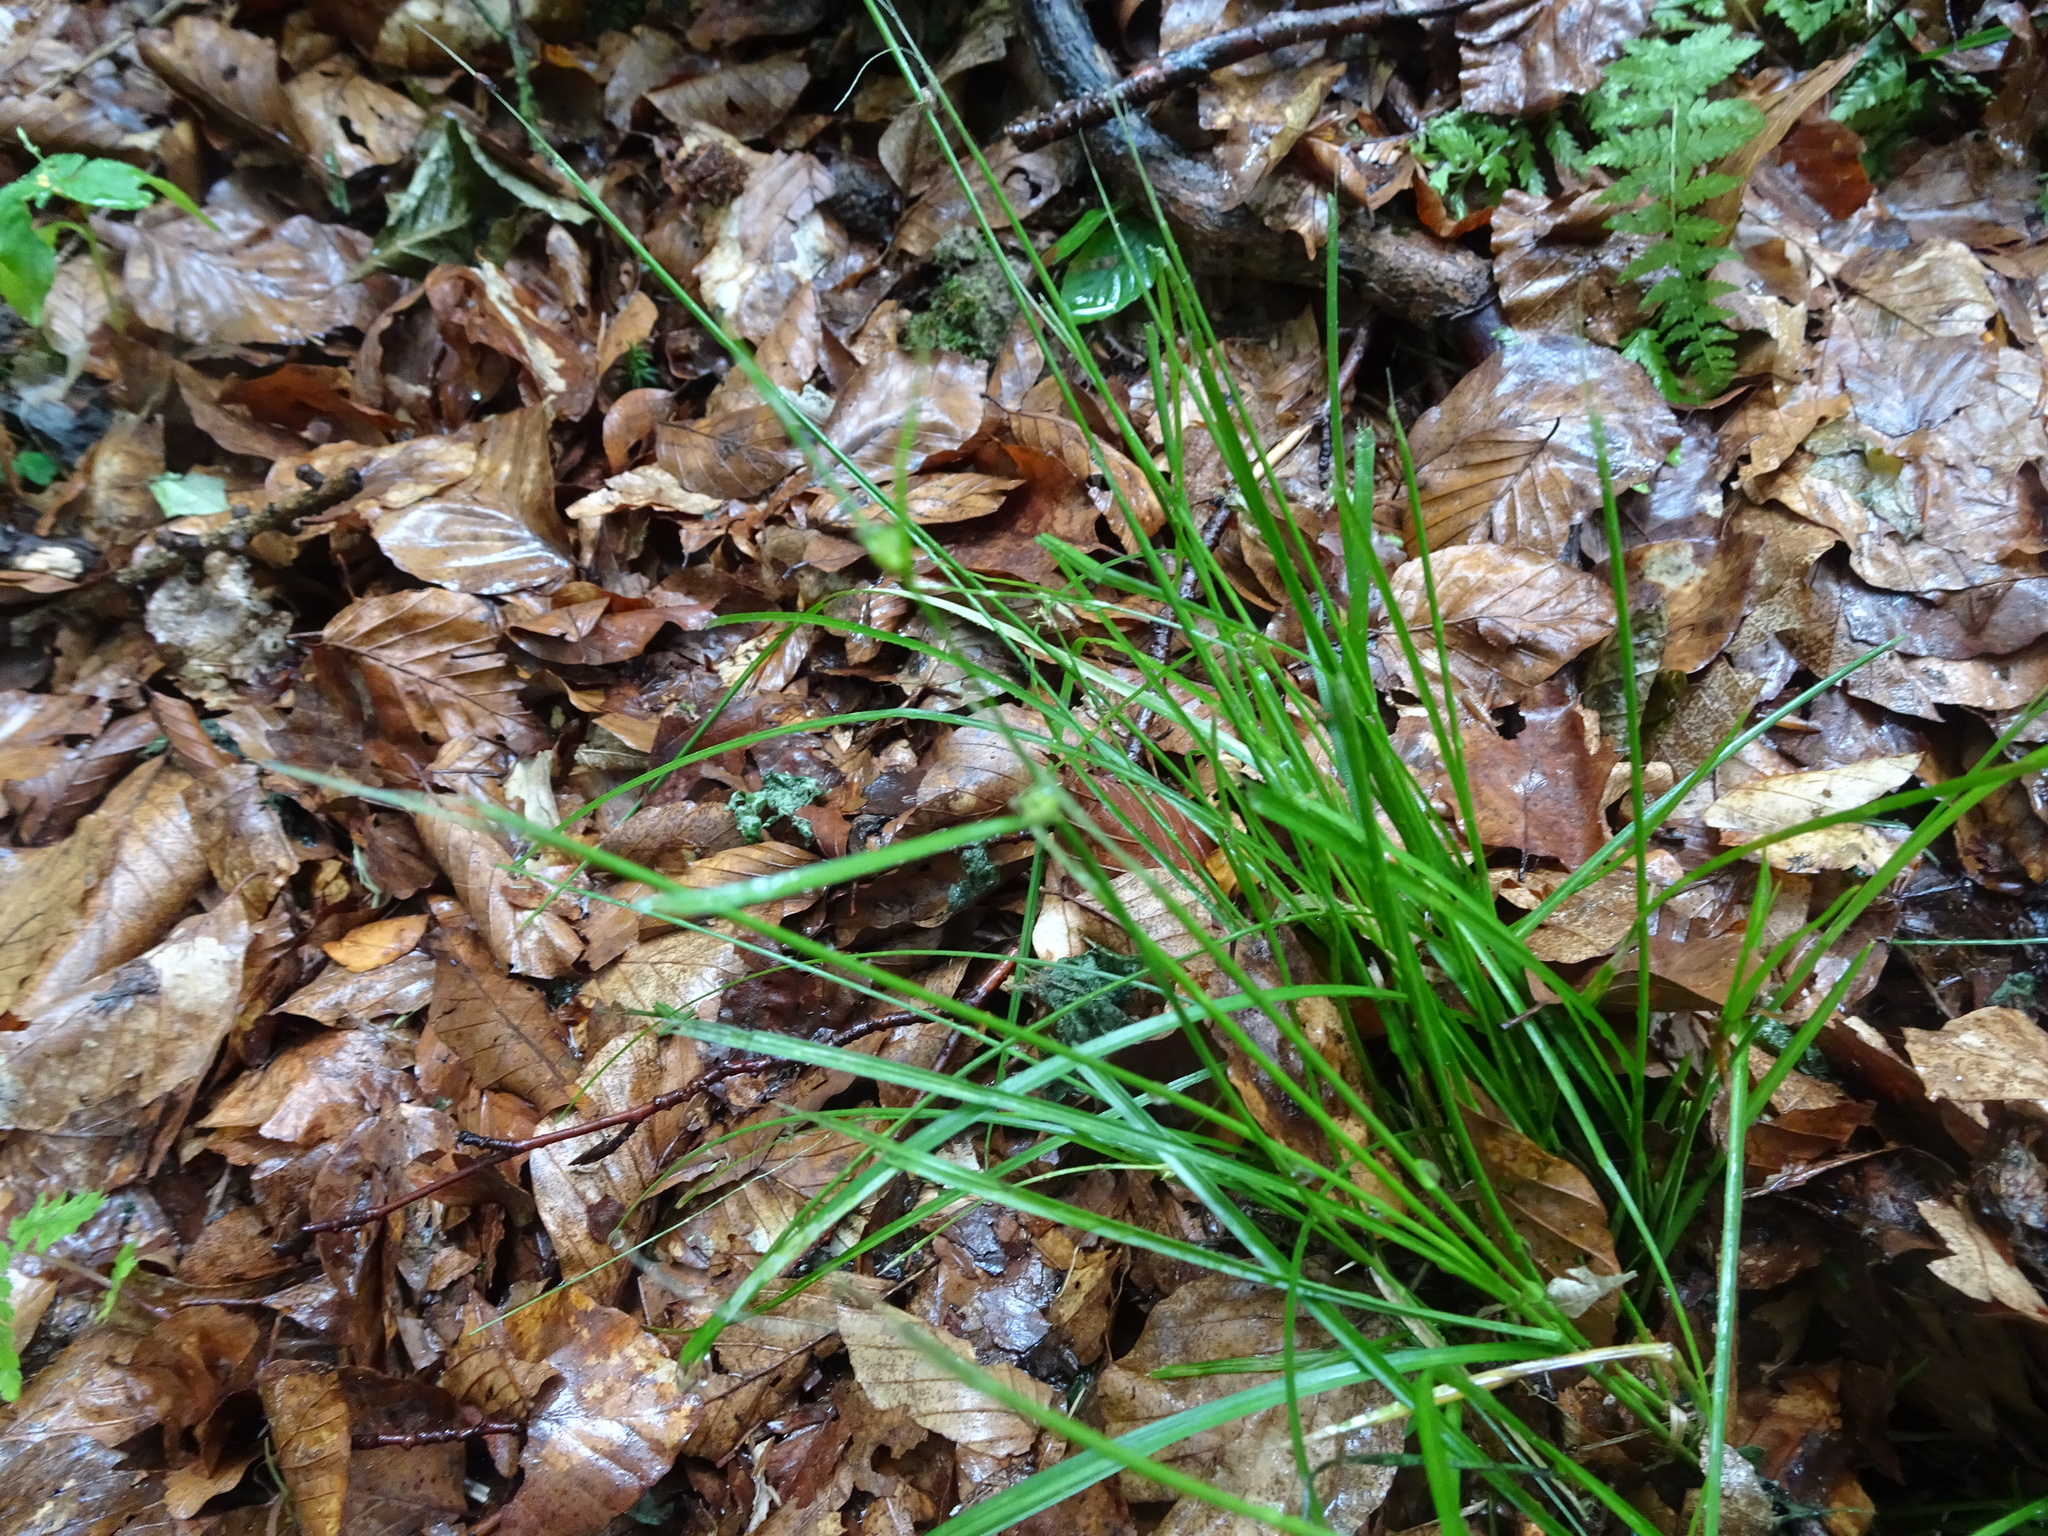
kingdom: Plantae
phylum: Tracheophyta
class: Liliopsida
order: Poales
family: Cyperaceae
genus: Carex
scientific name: Carex remota
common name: Remote sedge
